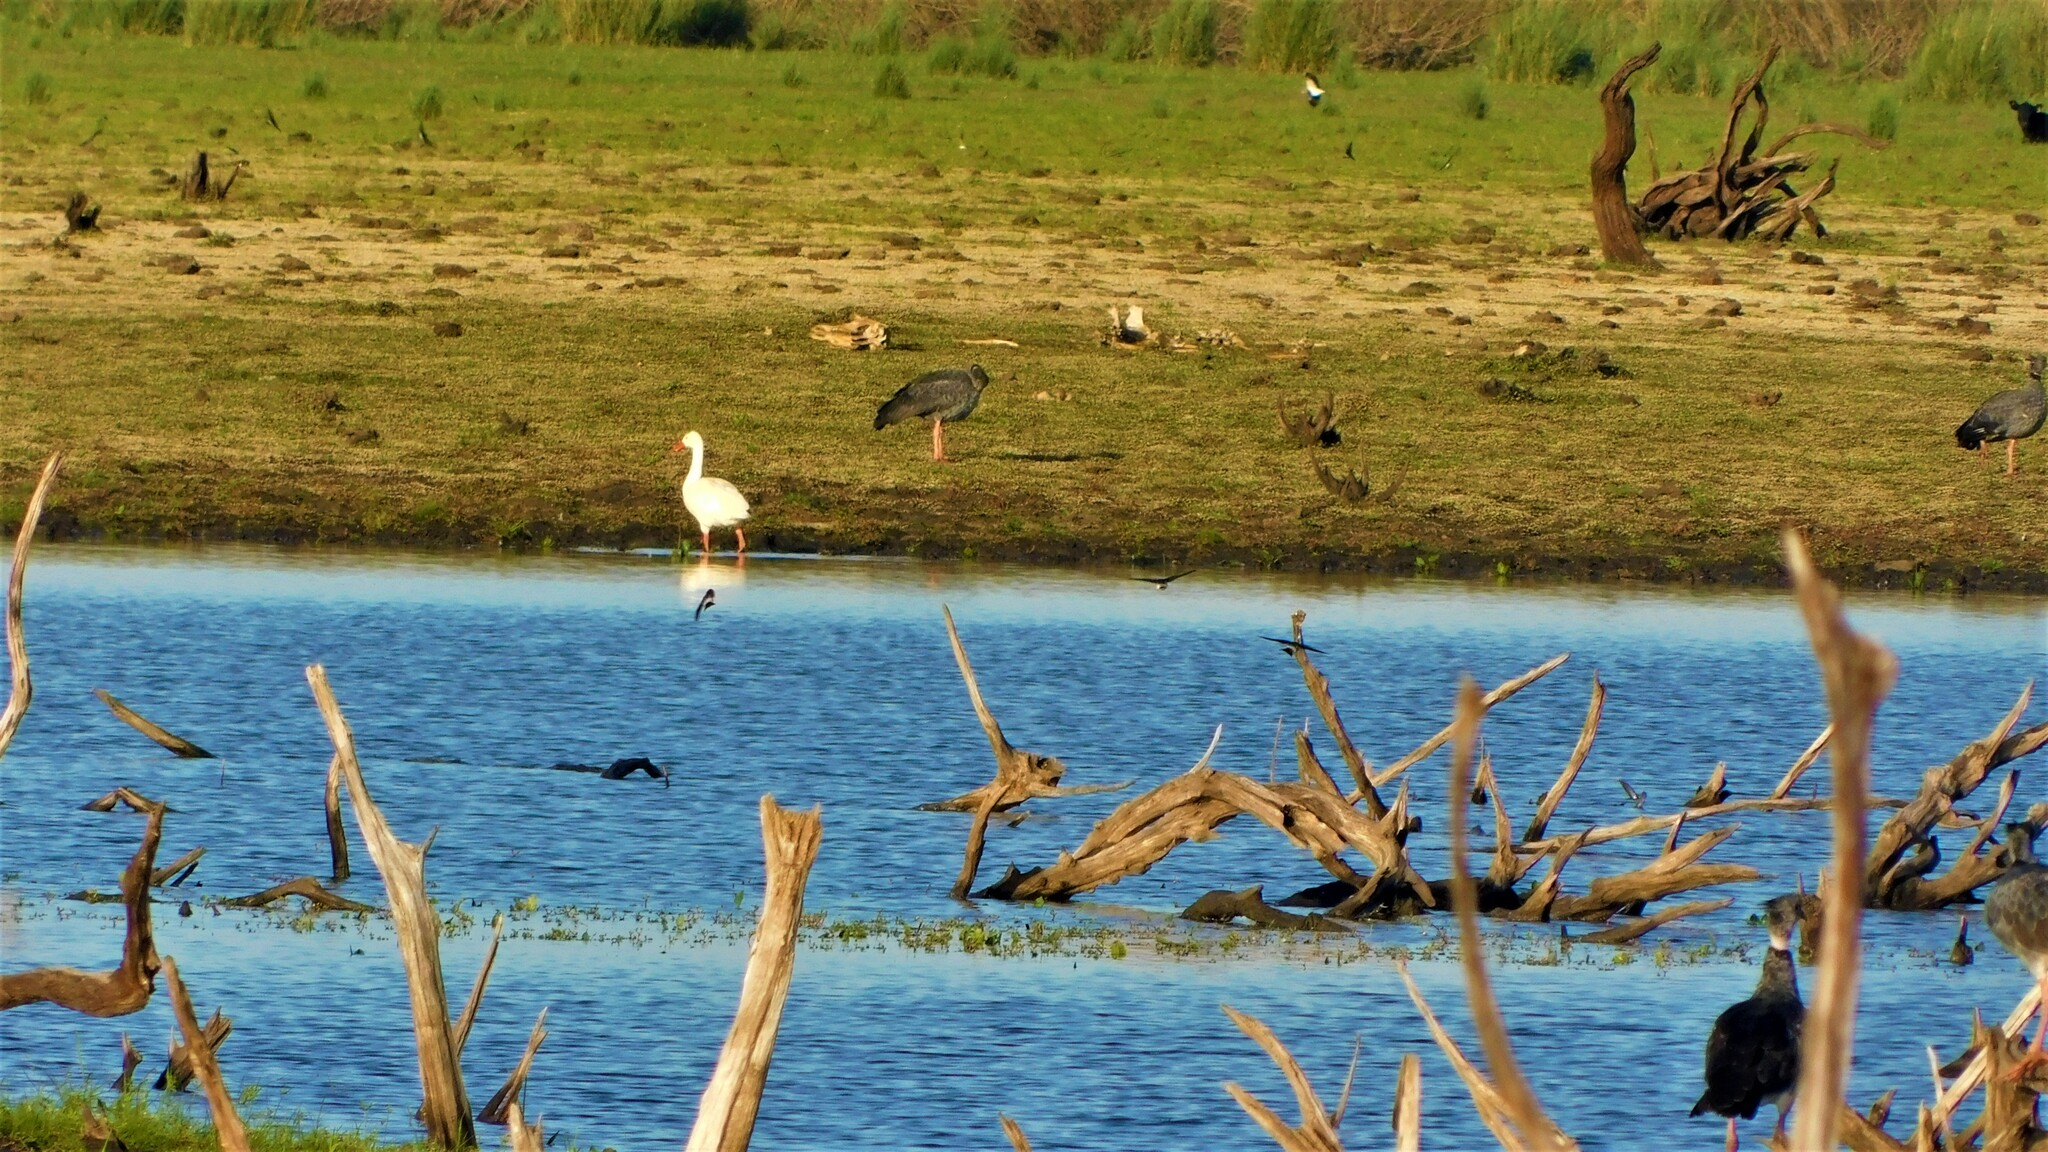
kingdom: Animalia
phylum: Chordata
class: Aves
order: Anseriformes
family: Anatidae
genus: Coscoroba
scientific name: Coscoroba coscoroba
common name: Coscoroba swan
